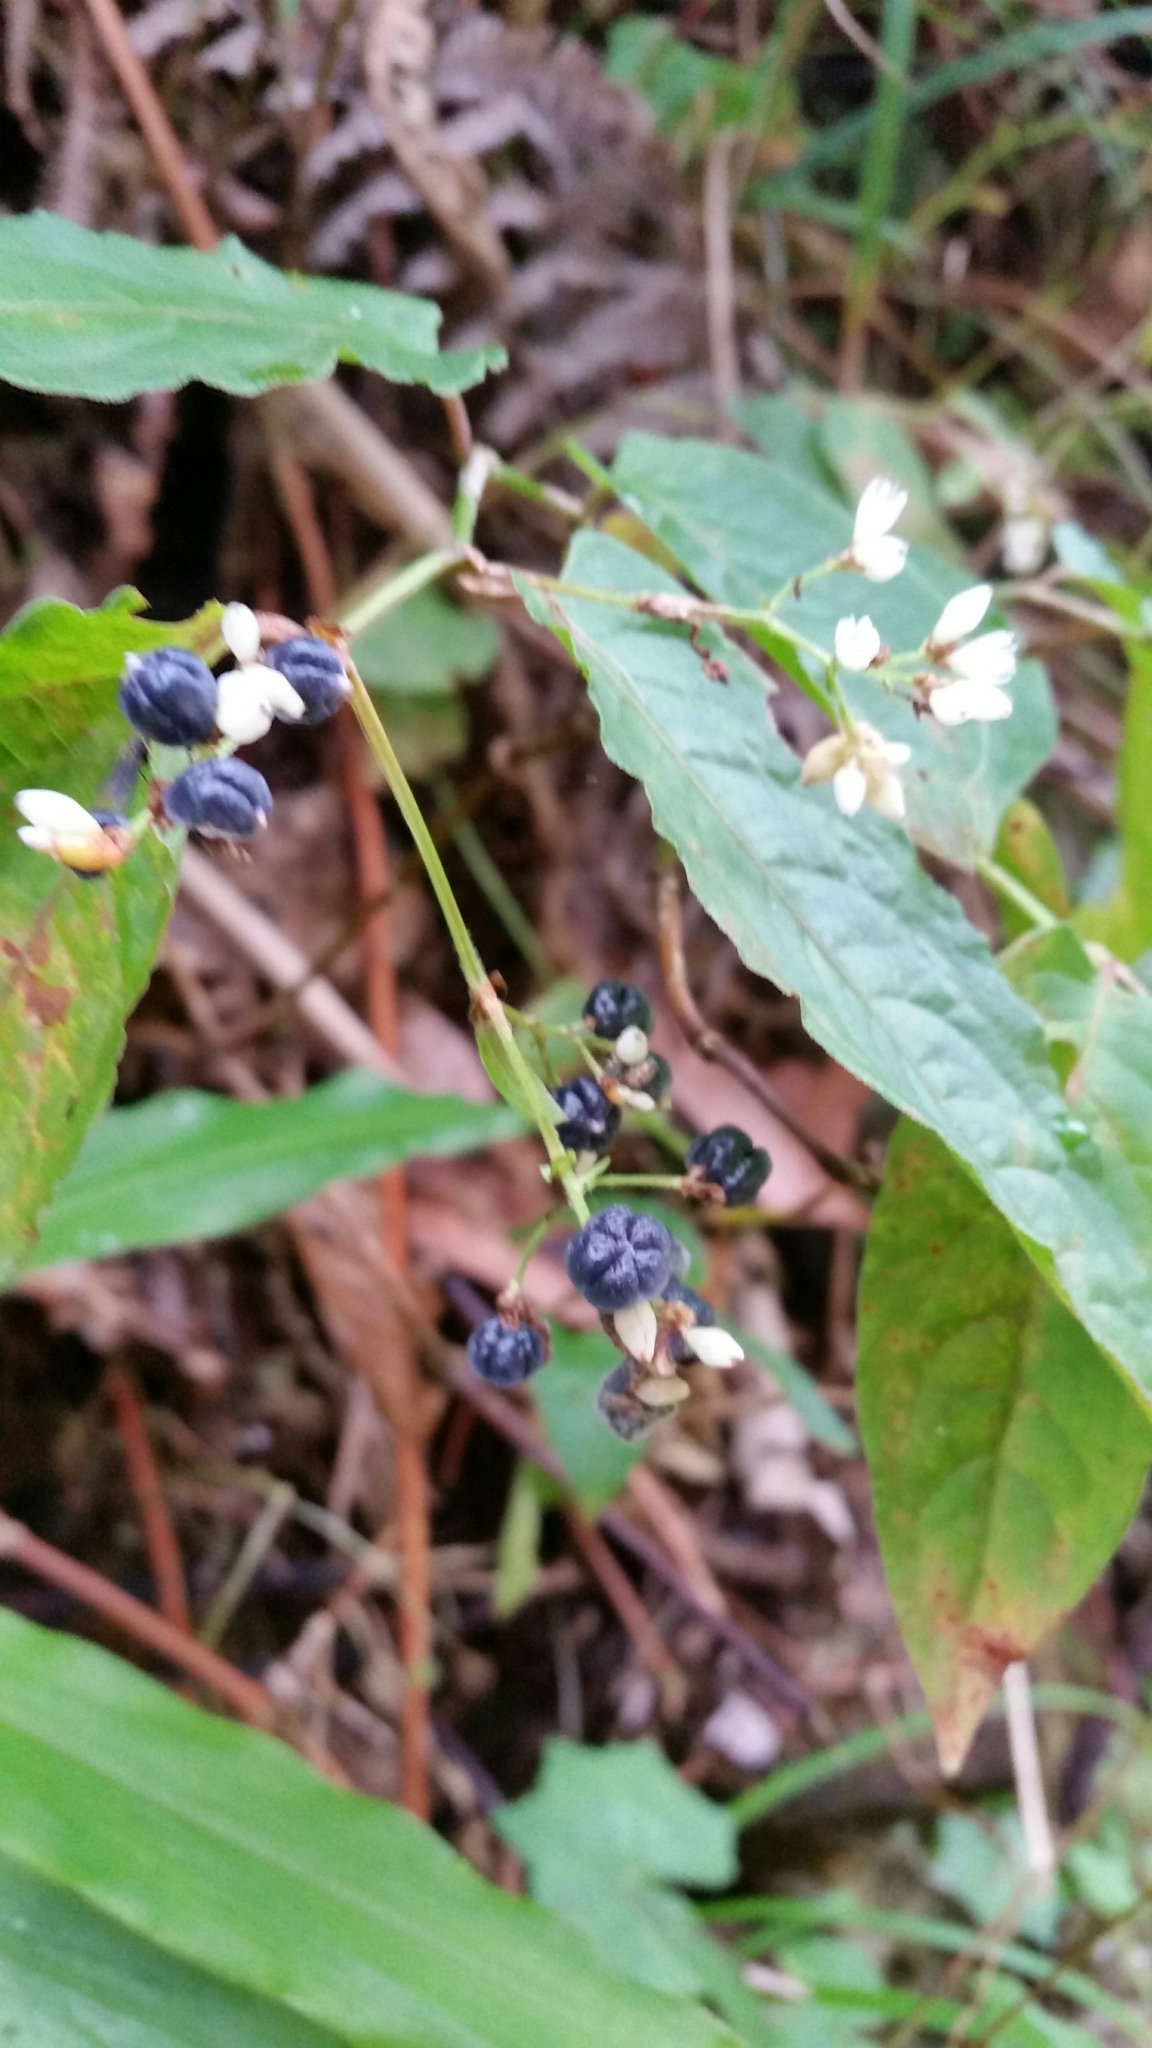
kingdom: Plantae
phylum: Tracheophyta
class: Magnoliopsida
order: Caryophyllales
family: Polygonaceae
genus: Persicaria
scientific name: Persicaria chinensis
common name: Chinese knotweed
